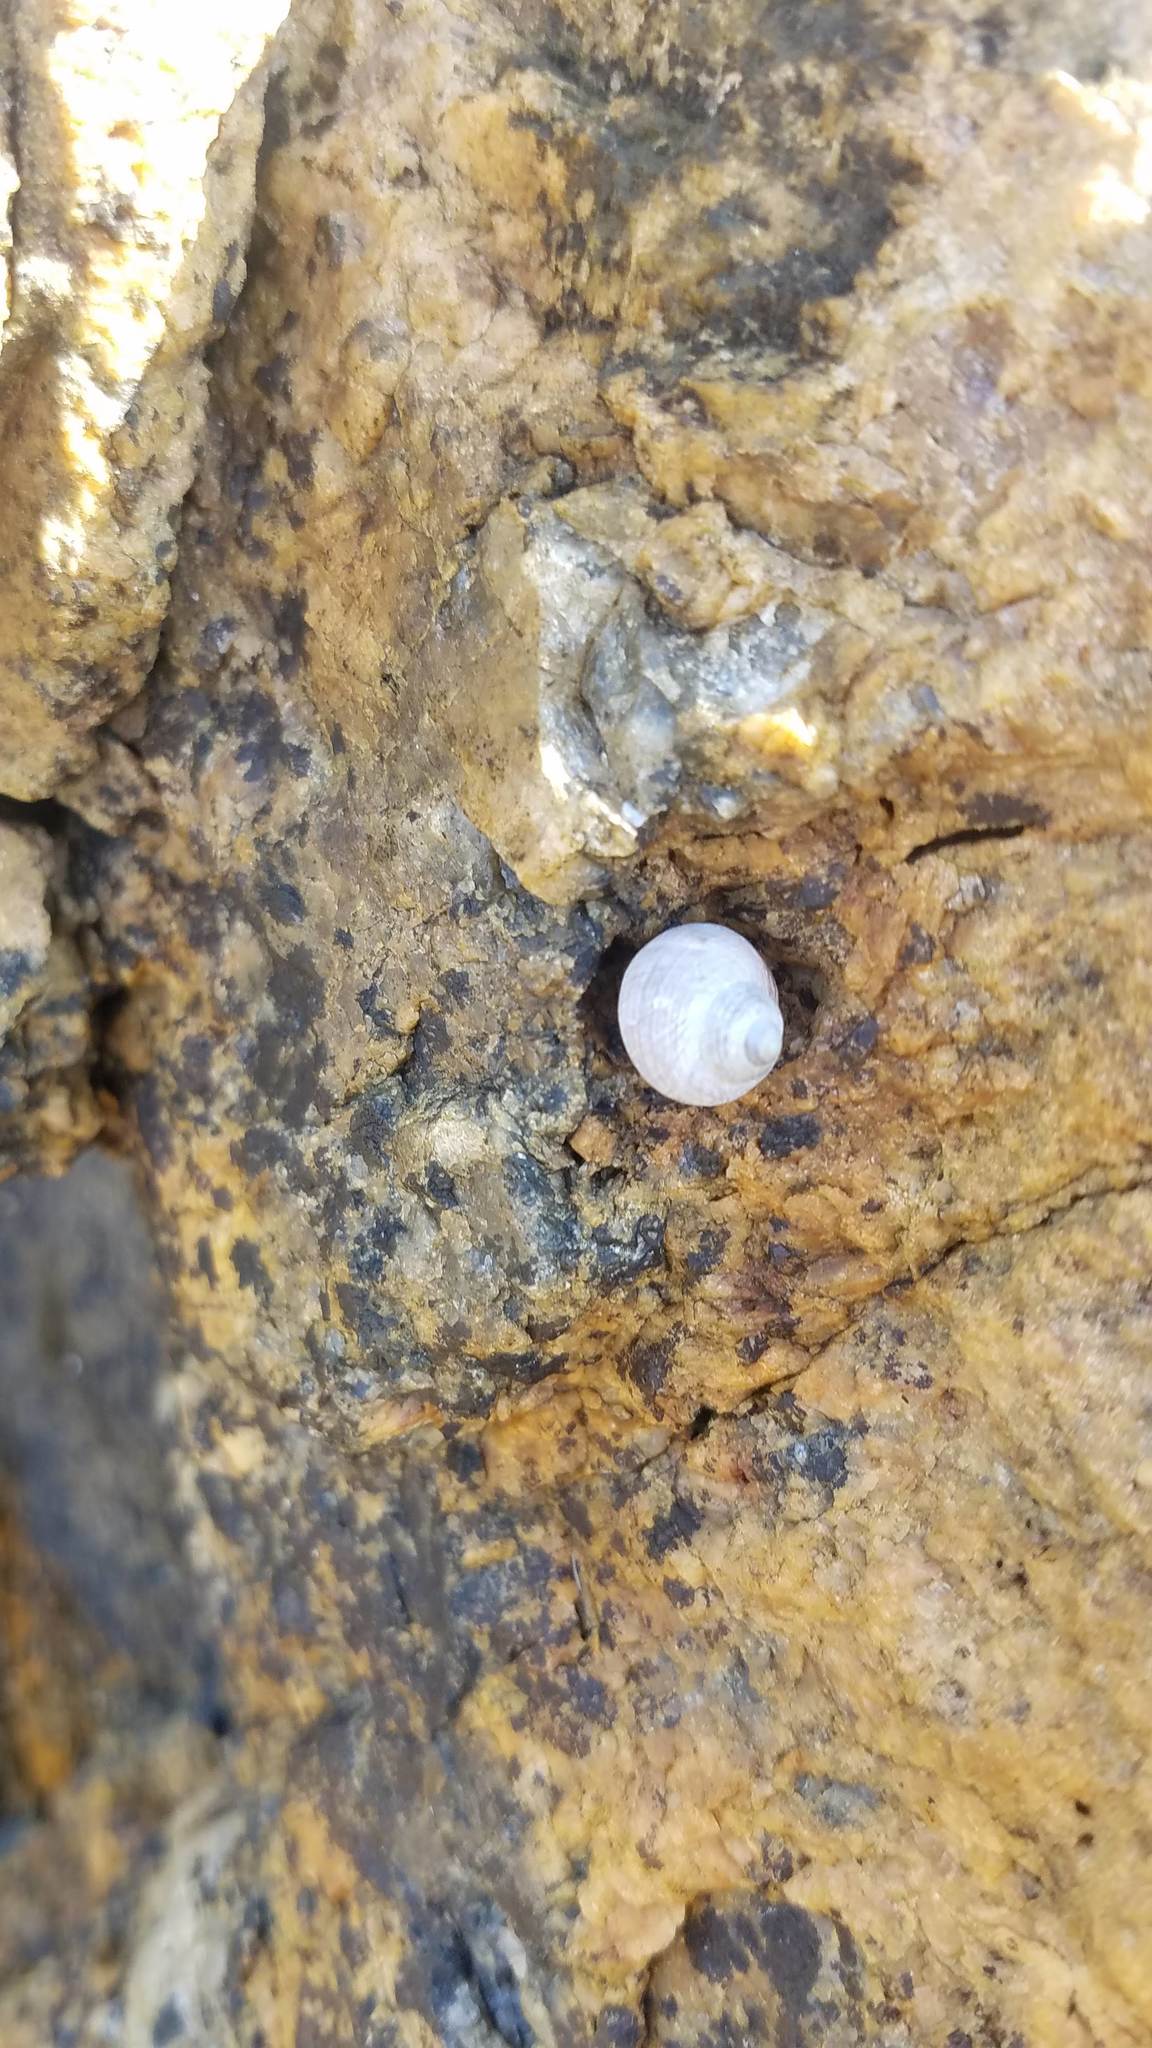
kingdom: Animalia
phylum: Mollusca
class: Gastropoda
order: Littorinimorpha
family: Littorinidae
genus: Littorina
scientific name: Littorina littorea
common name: Common periwinkle
